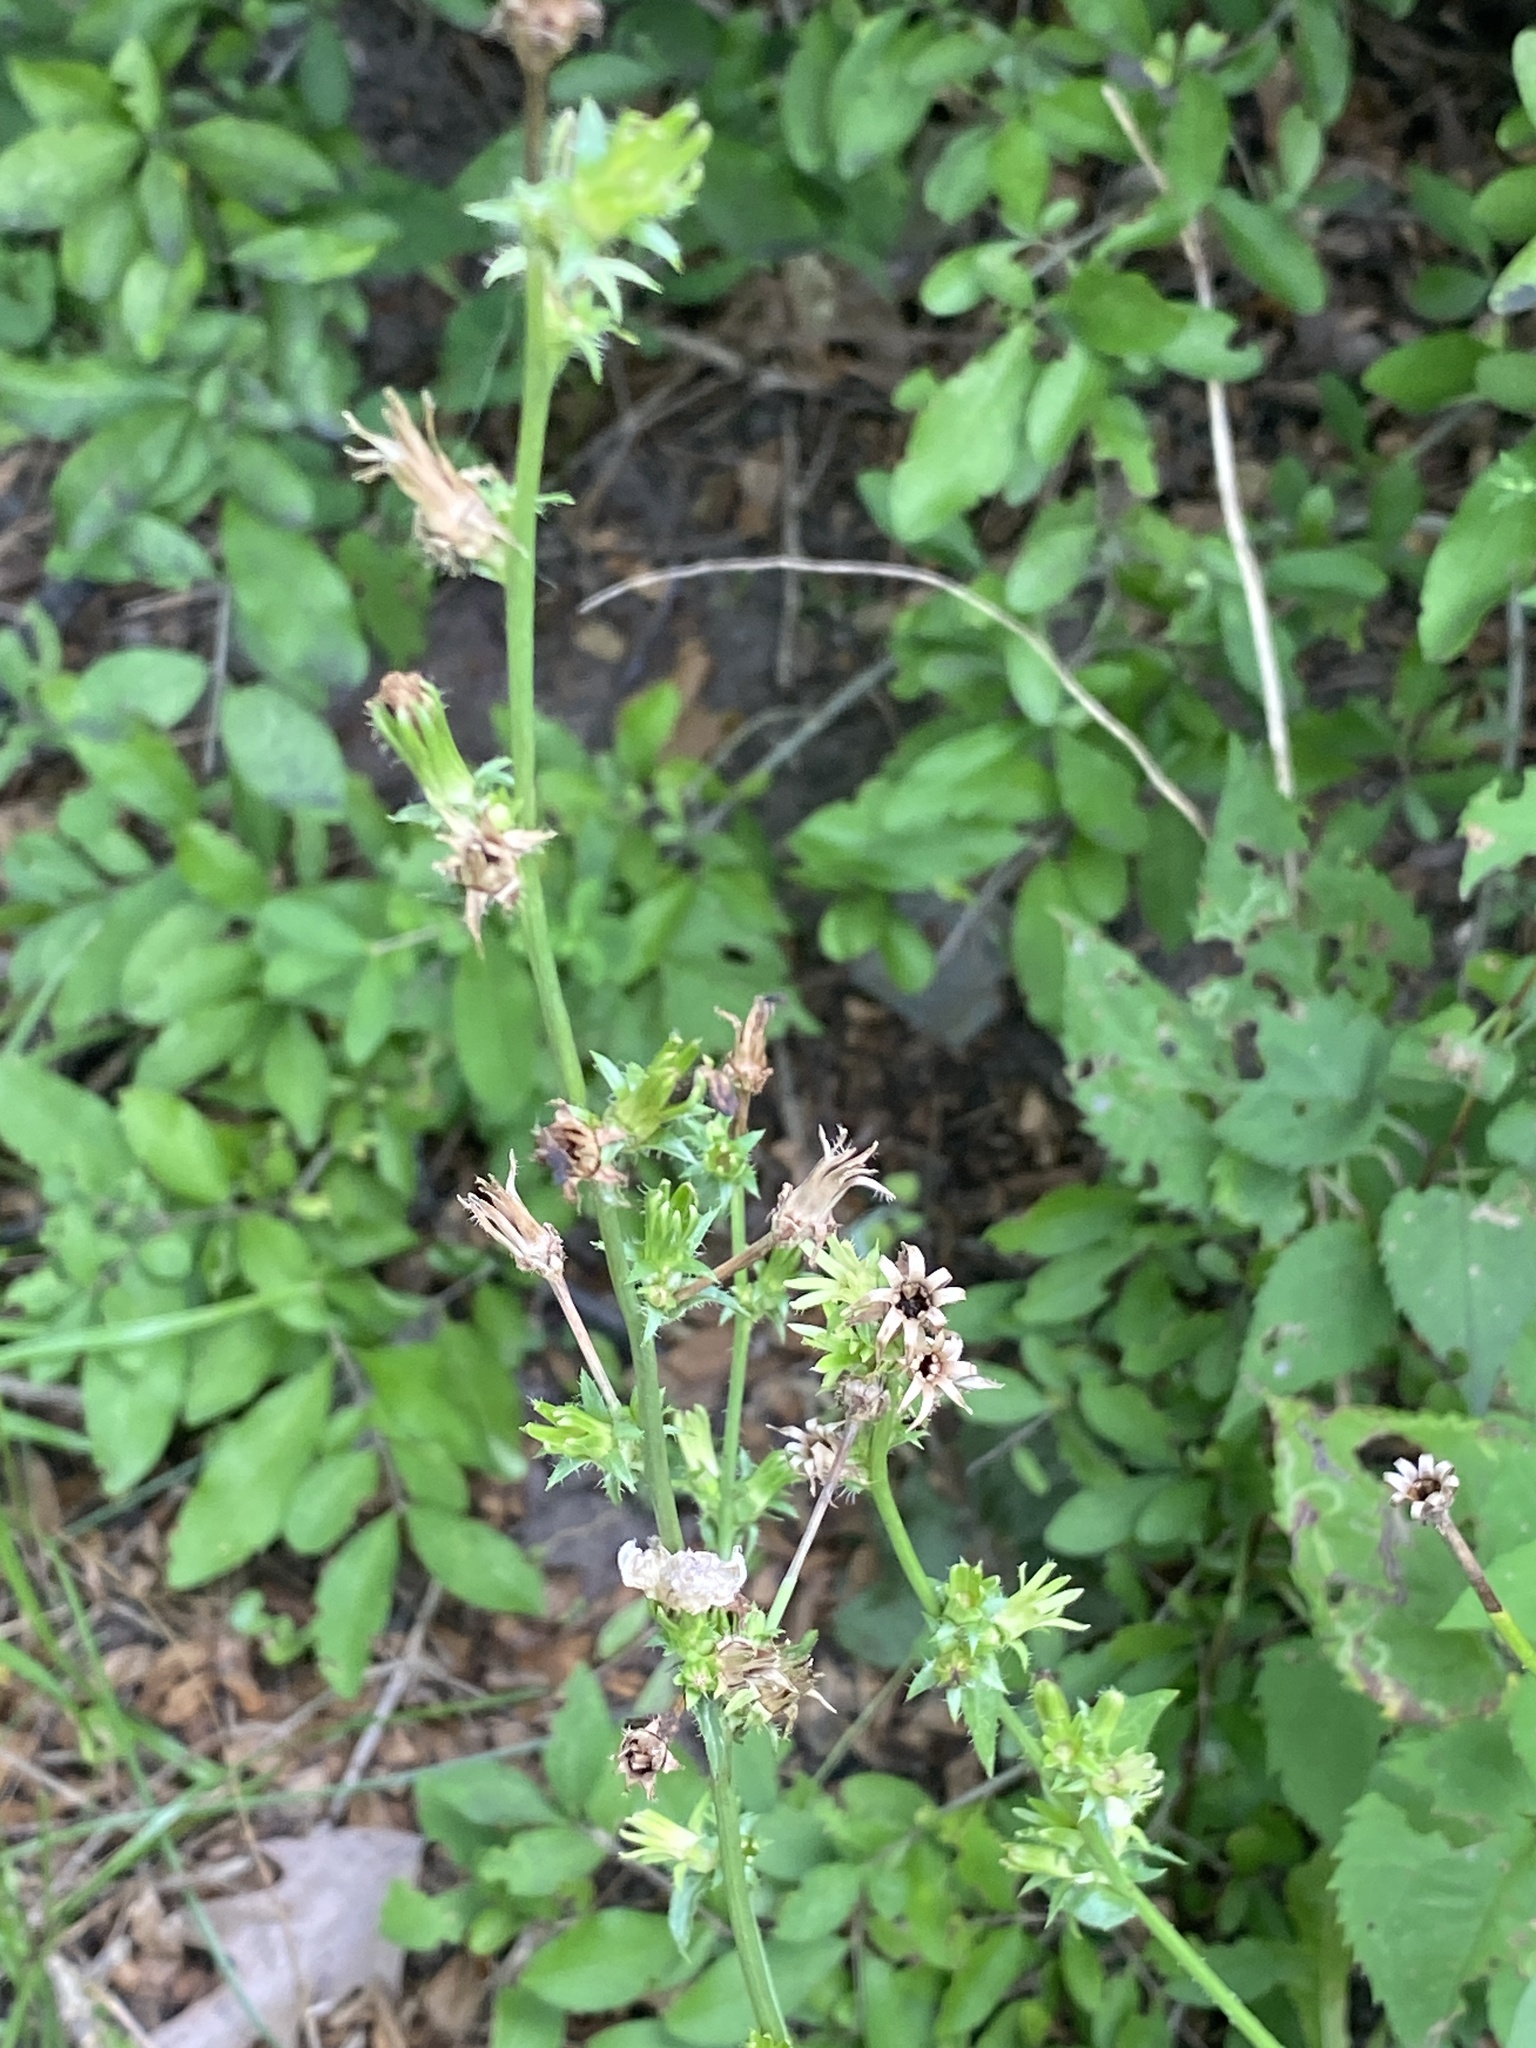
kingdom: Plantae
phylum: Tracheophyta
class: Magnoliopsida
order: Asterales
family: Asteraceae
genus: Cichorium
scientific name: Cichorium intybus
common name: Chicory
